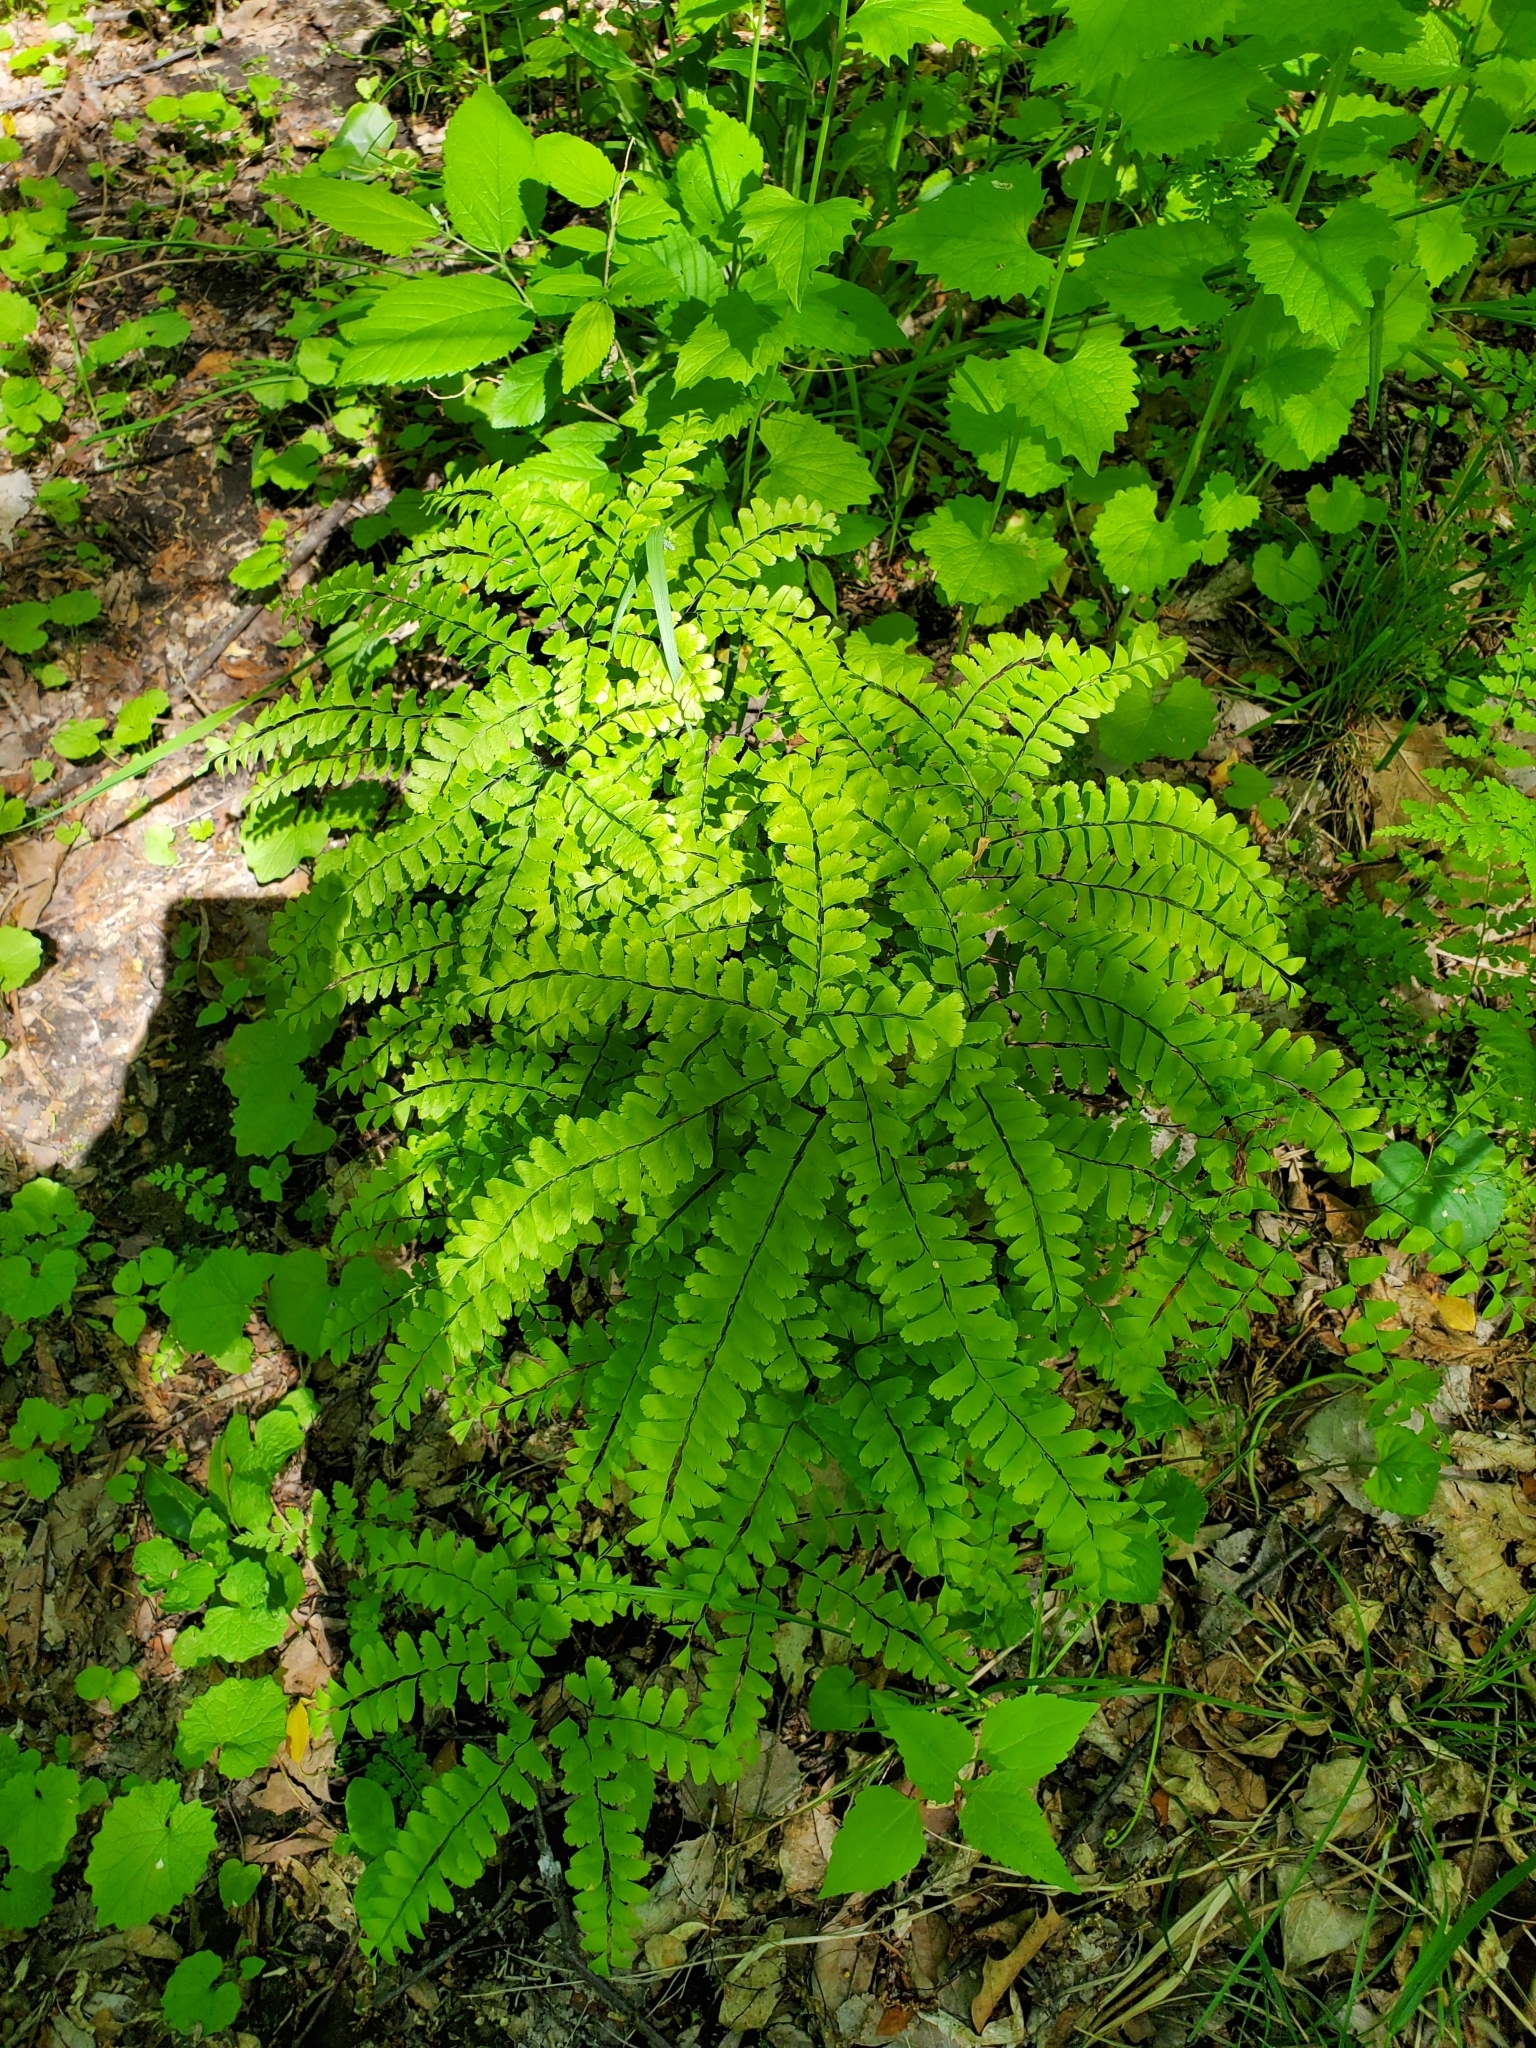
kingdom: Plantae
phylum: Tracheophyta
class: Polypodiopsida
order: Polypodiales
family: Pteridaceae
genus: Adiantum
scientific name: Adiantum pedatum
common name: Five-finger fern
